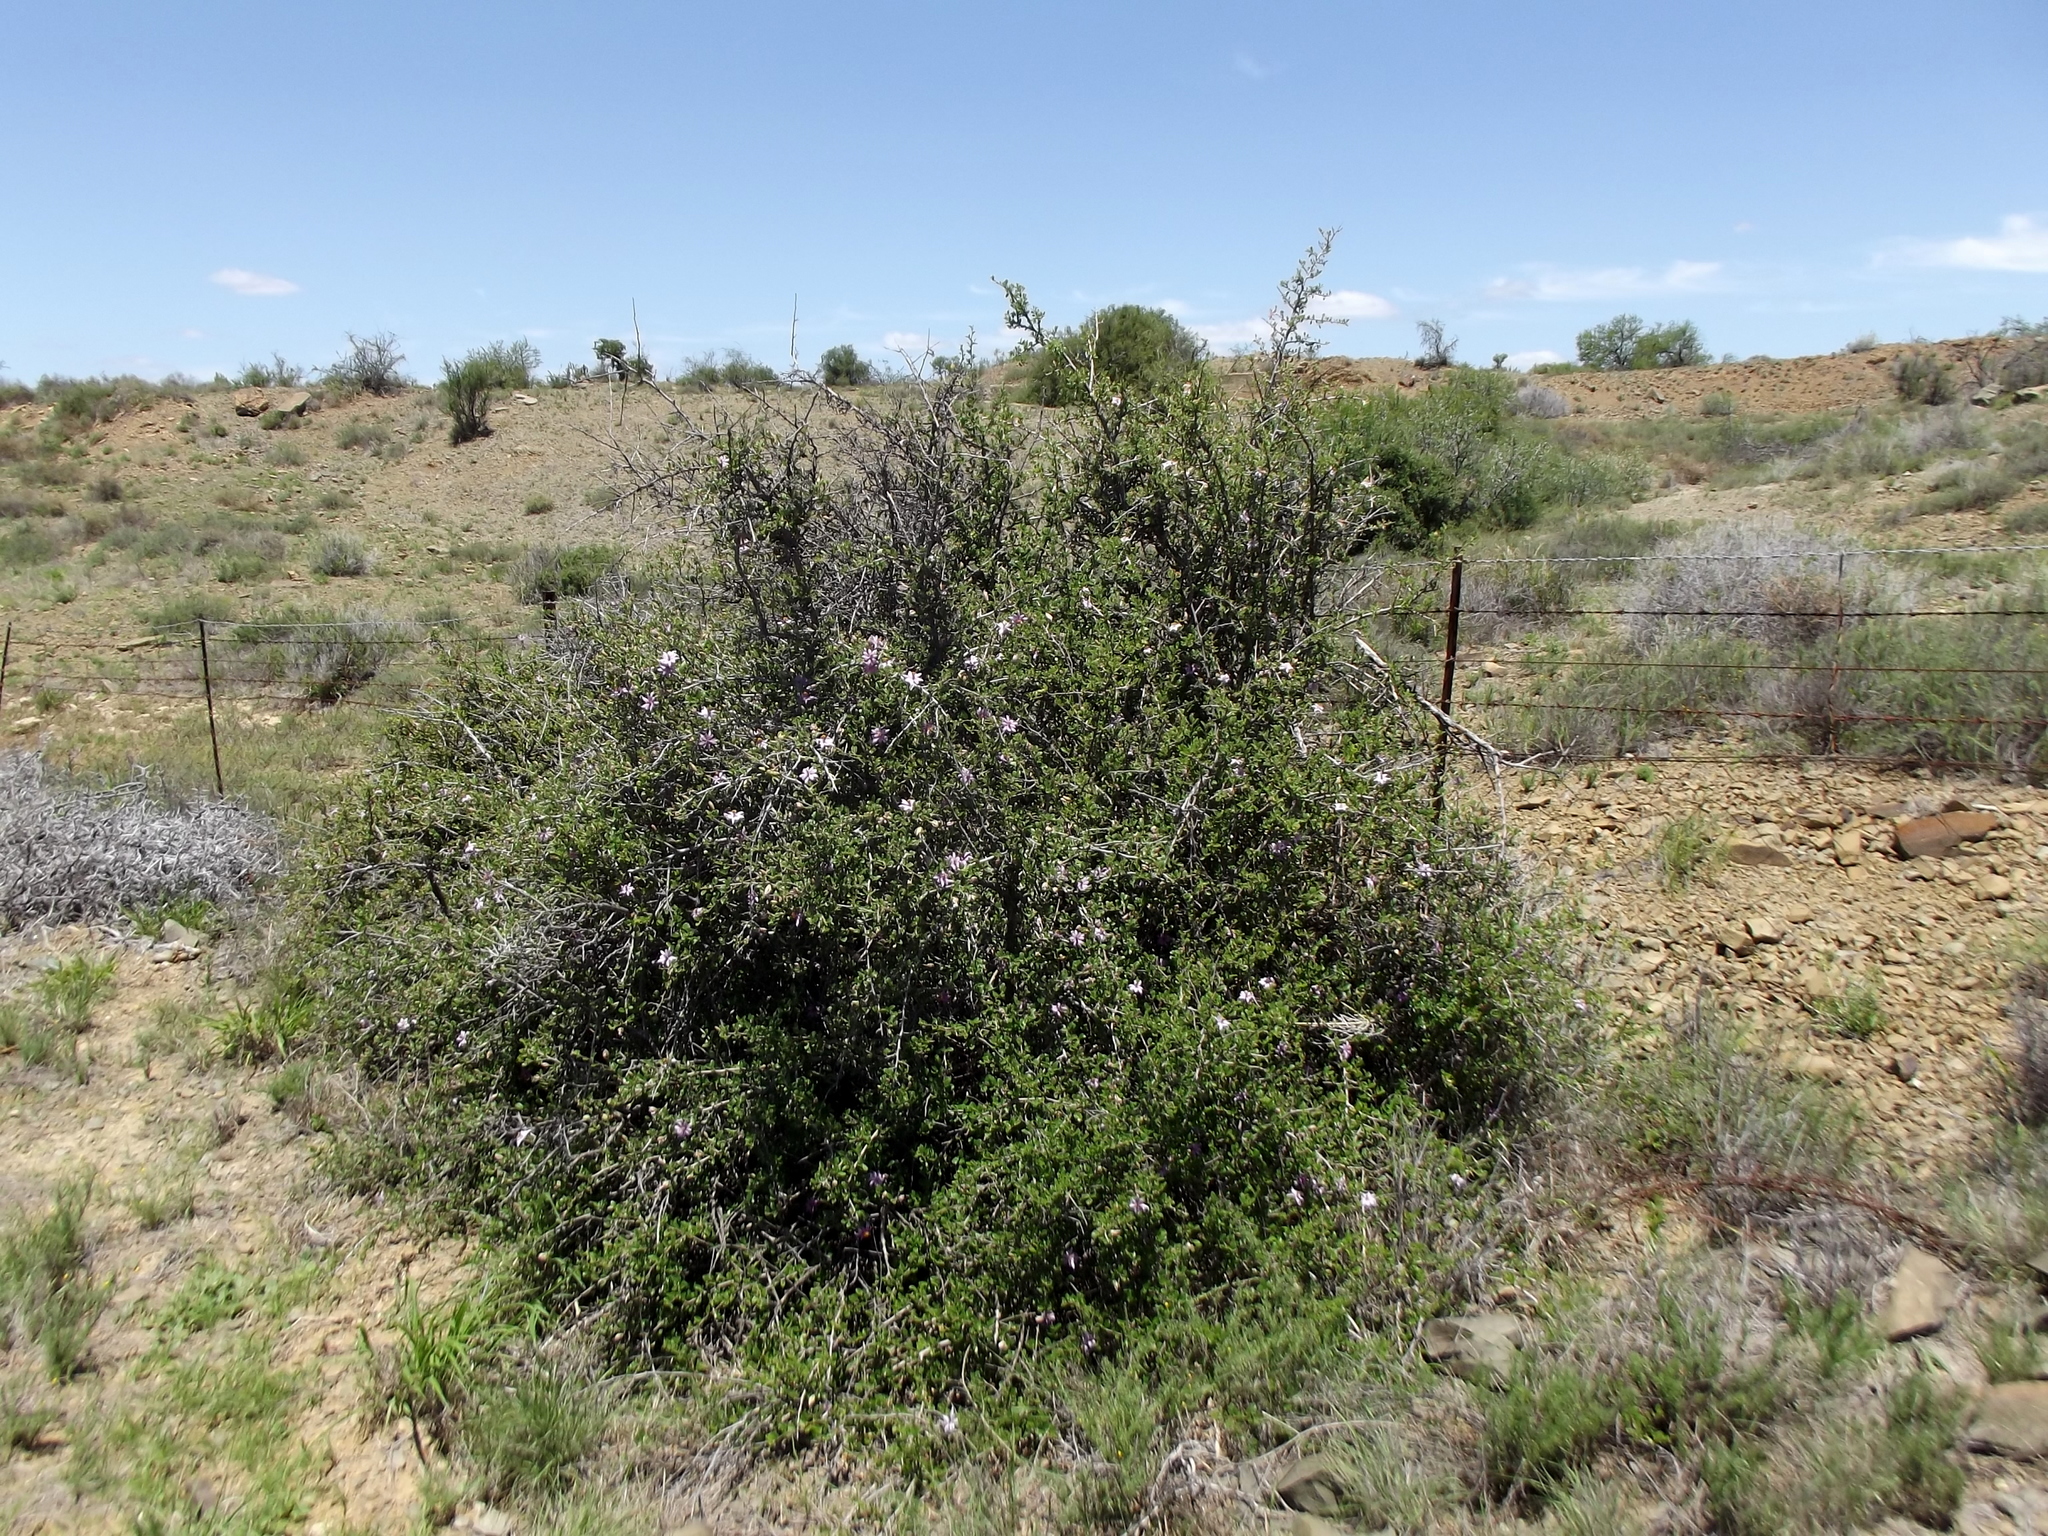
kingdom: Plantae
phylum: Tracheophyta
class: Magnoliopsida
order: Malvales
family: Malvaceae
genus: Grewia
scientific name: Grewia robusta
